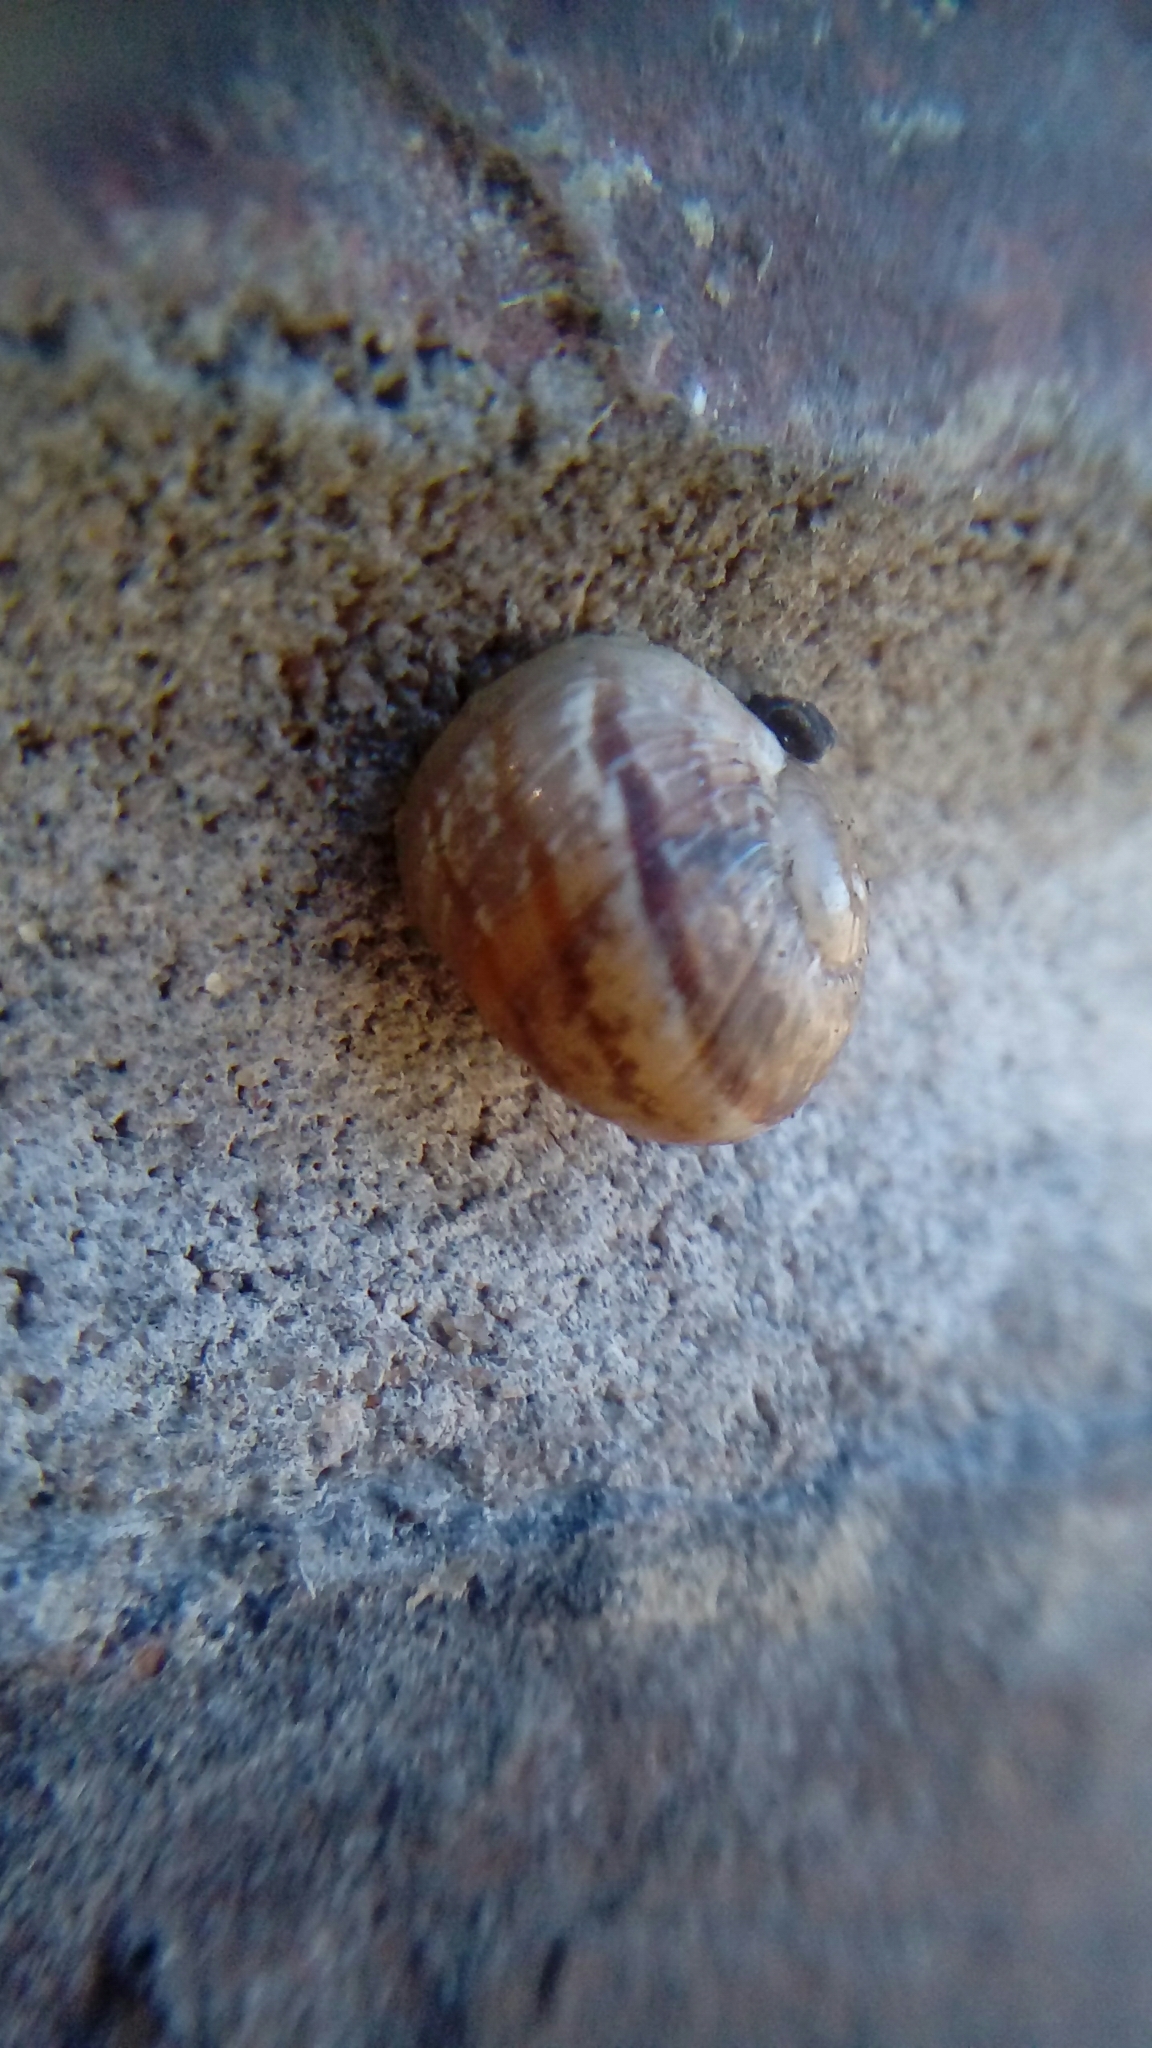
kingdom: Animalia
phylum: Mollusca
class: Gastropoda
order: Stylommatophora
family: Helicidae
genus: Cornu
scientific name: Cornu aspersum
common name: Brown garden snail
